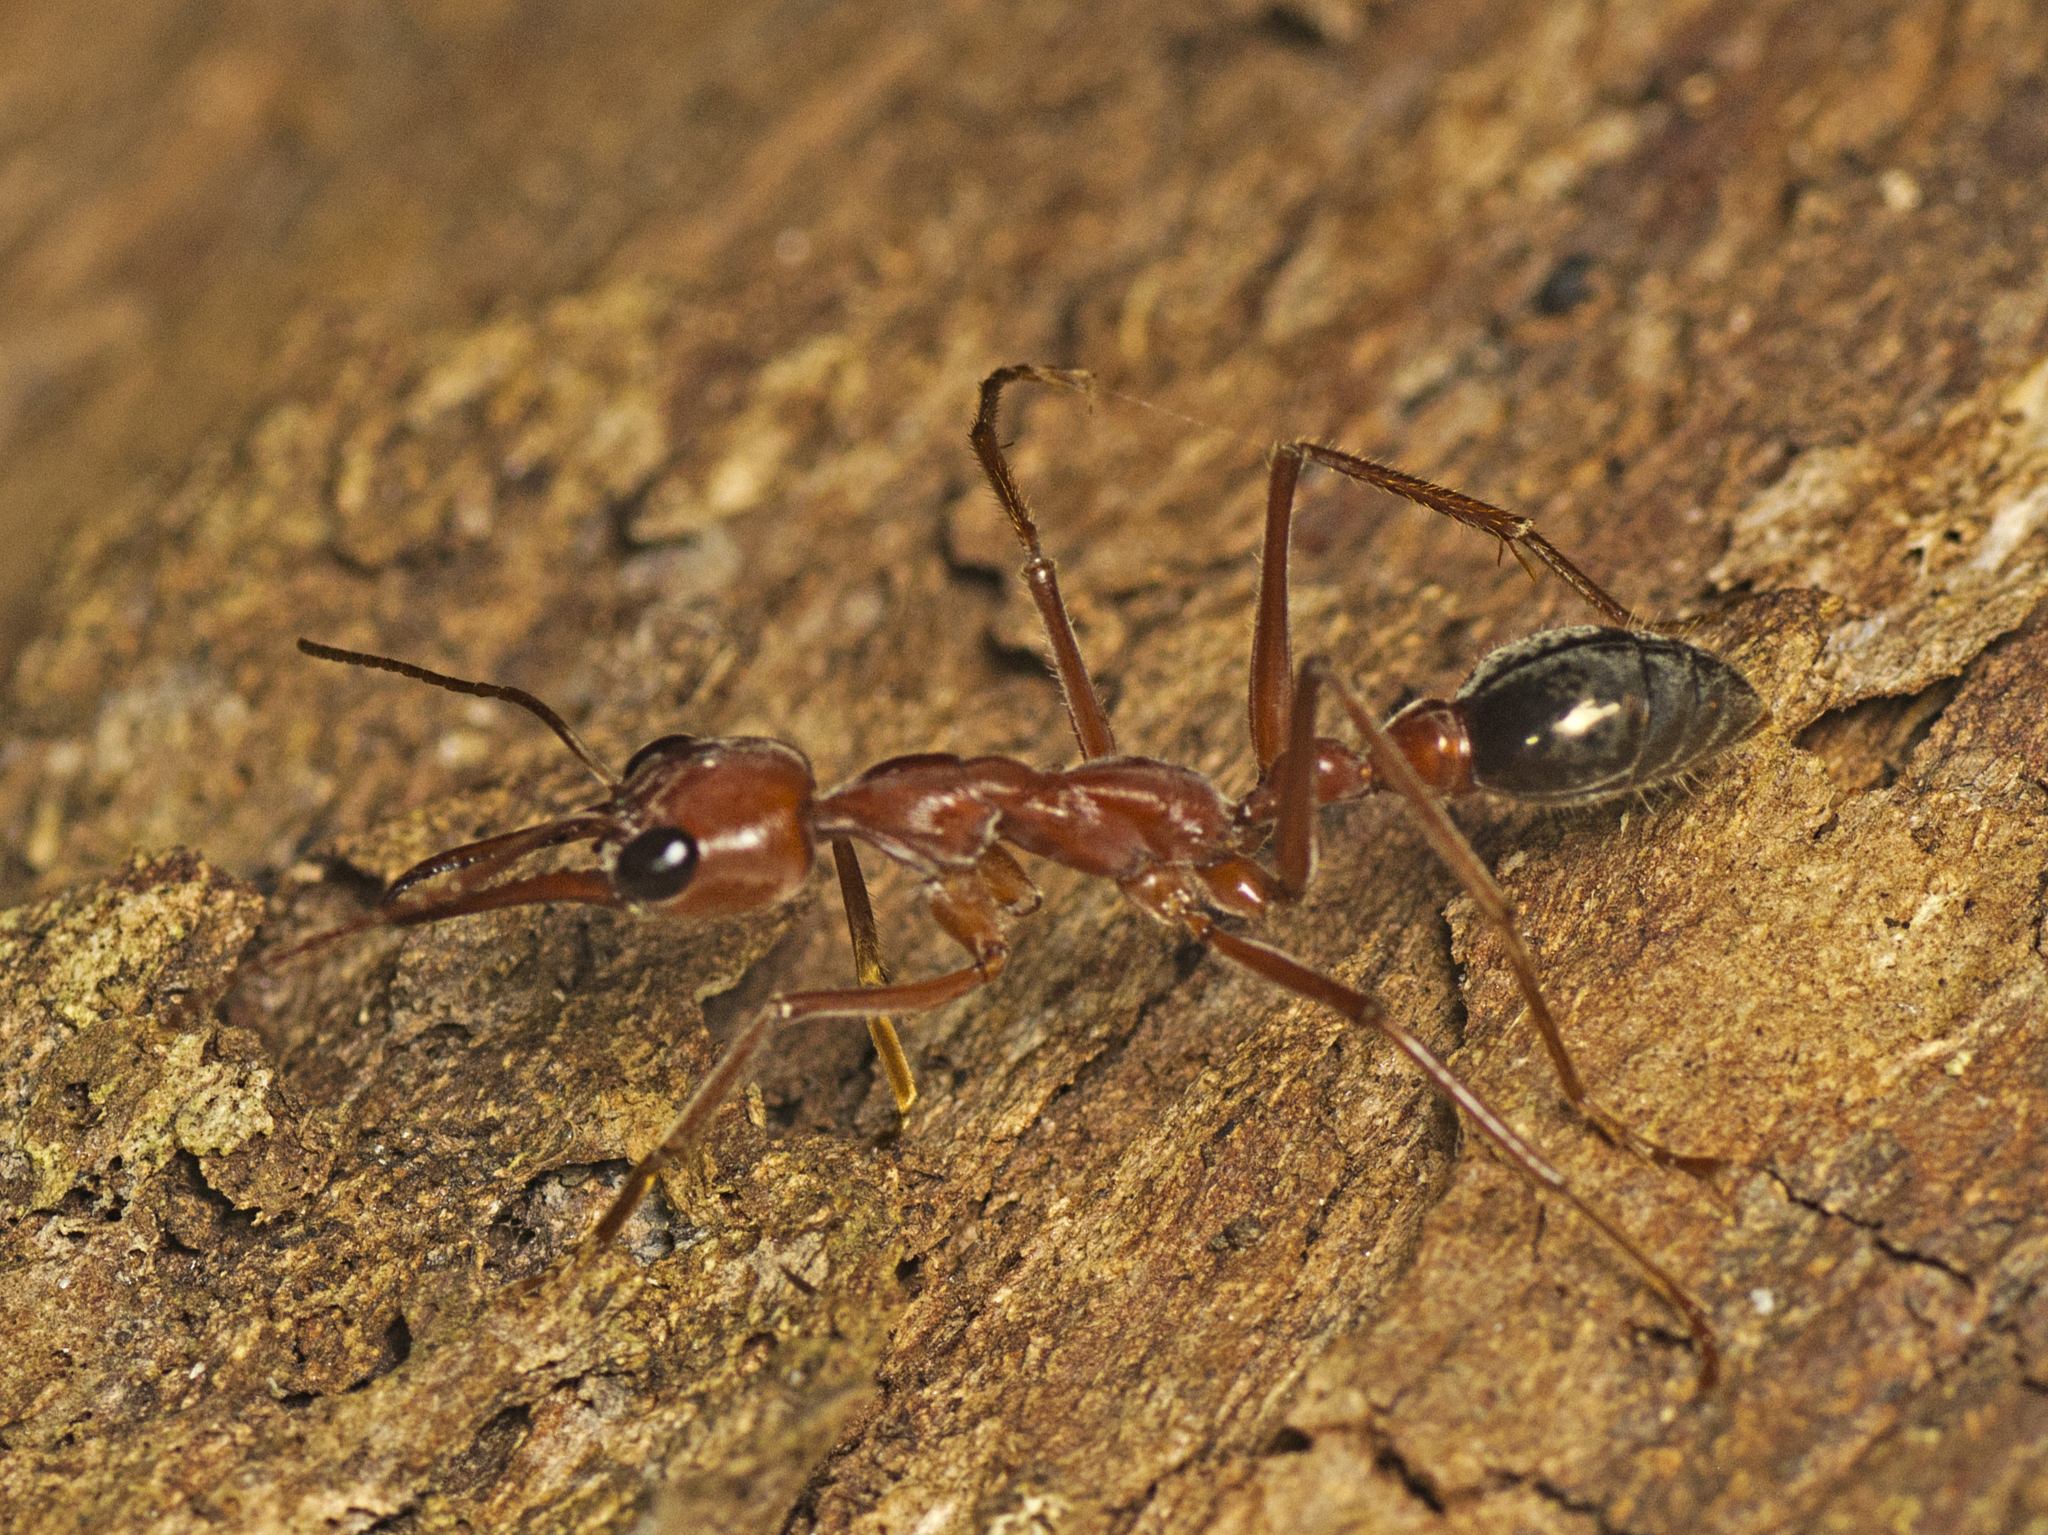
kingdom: Animalia
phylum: Arthropoda
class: Insecta
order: Hymenoptera
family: Formicidae
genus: Myrmecia
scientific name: Myrmecia brevinoda
